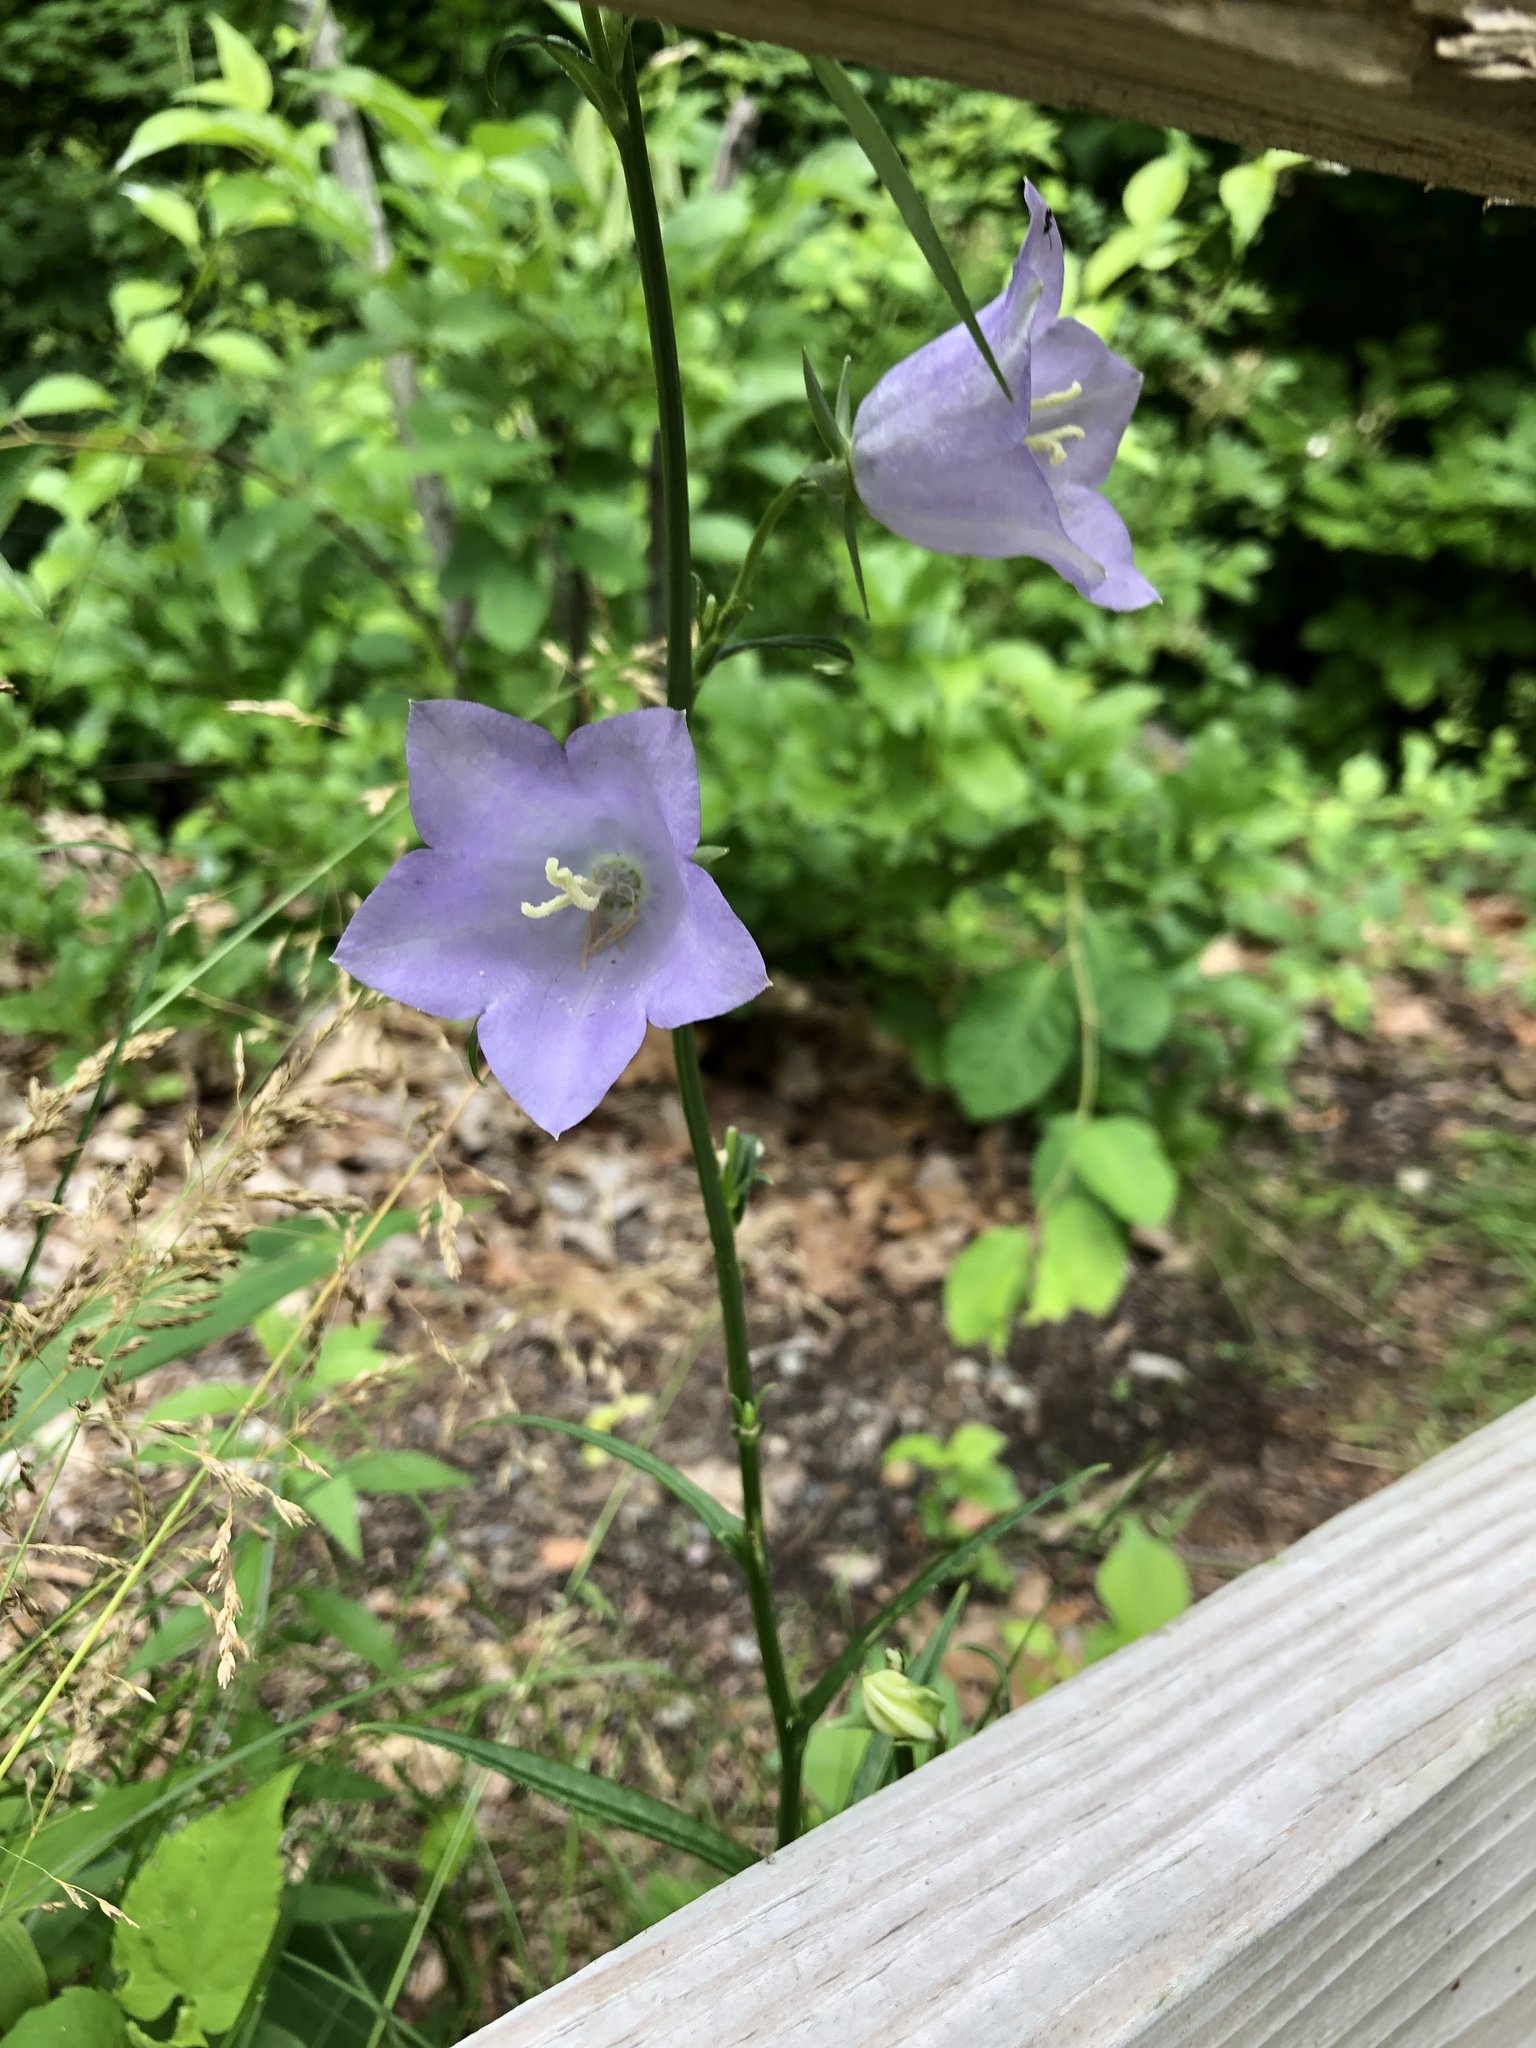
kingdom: Plantae
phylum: Tracheophyta
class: Magnoliopsida
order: Asterales
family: Campanulaceae
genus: Campanula
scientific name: Campanula persicifolia
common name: Peach-leaved bellflower
